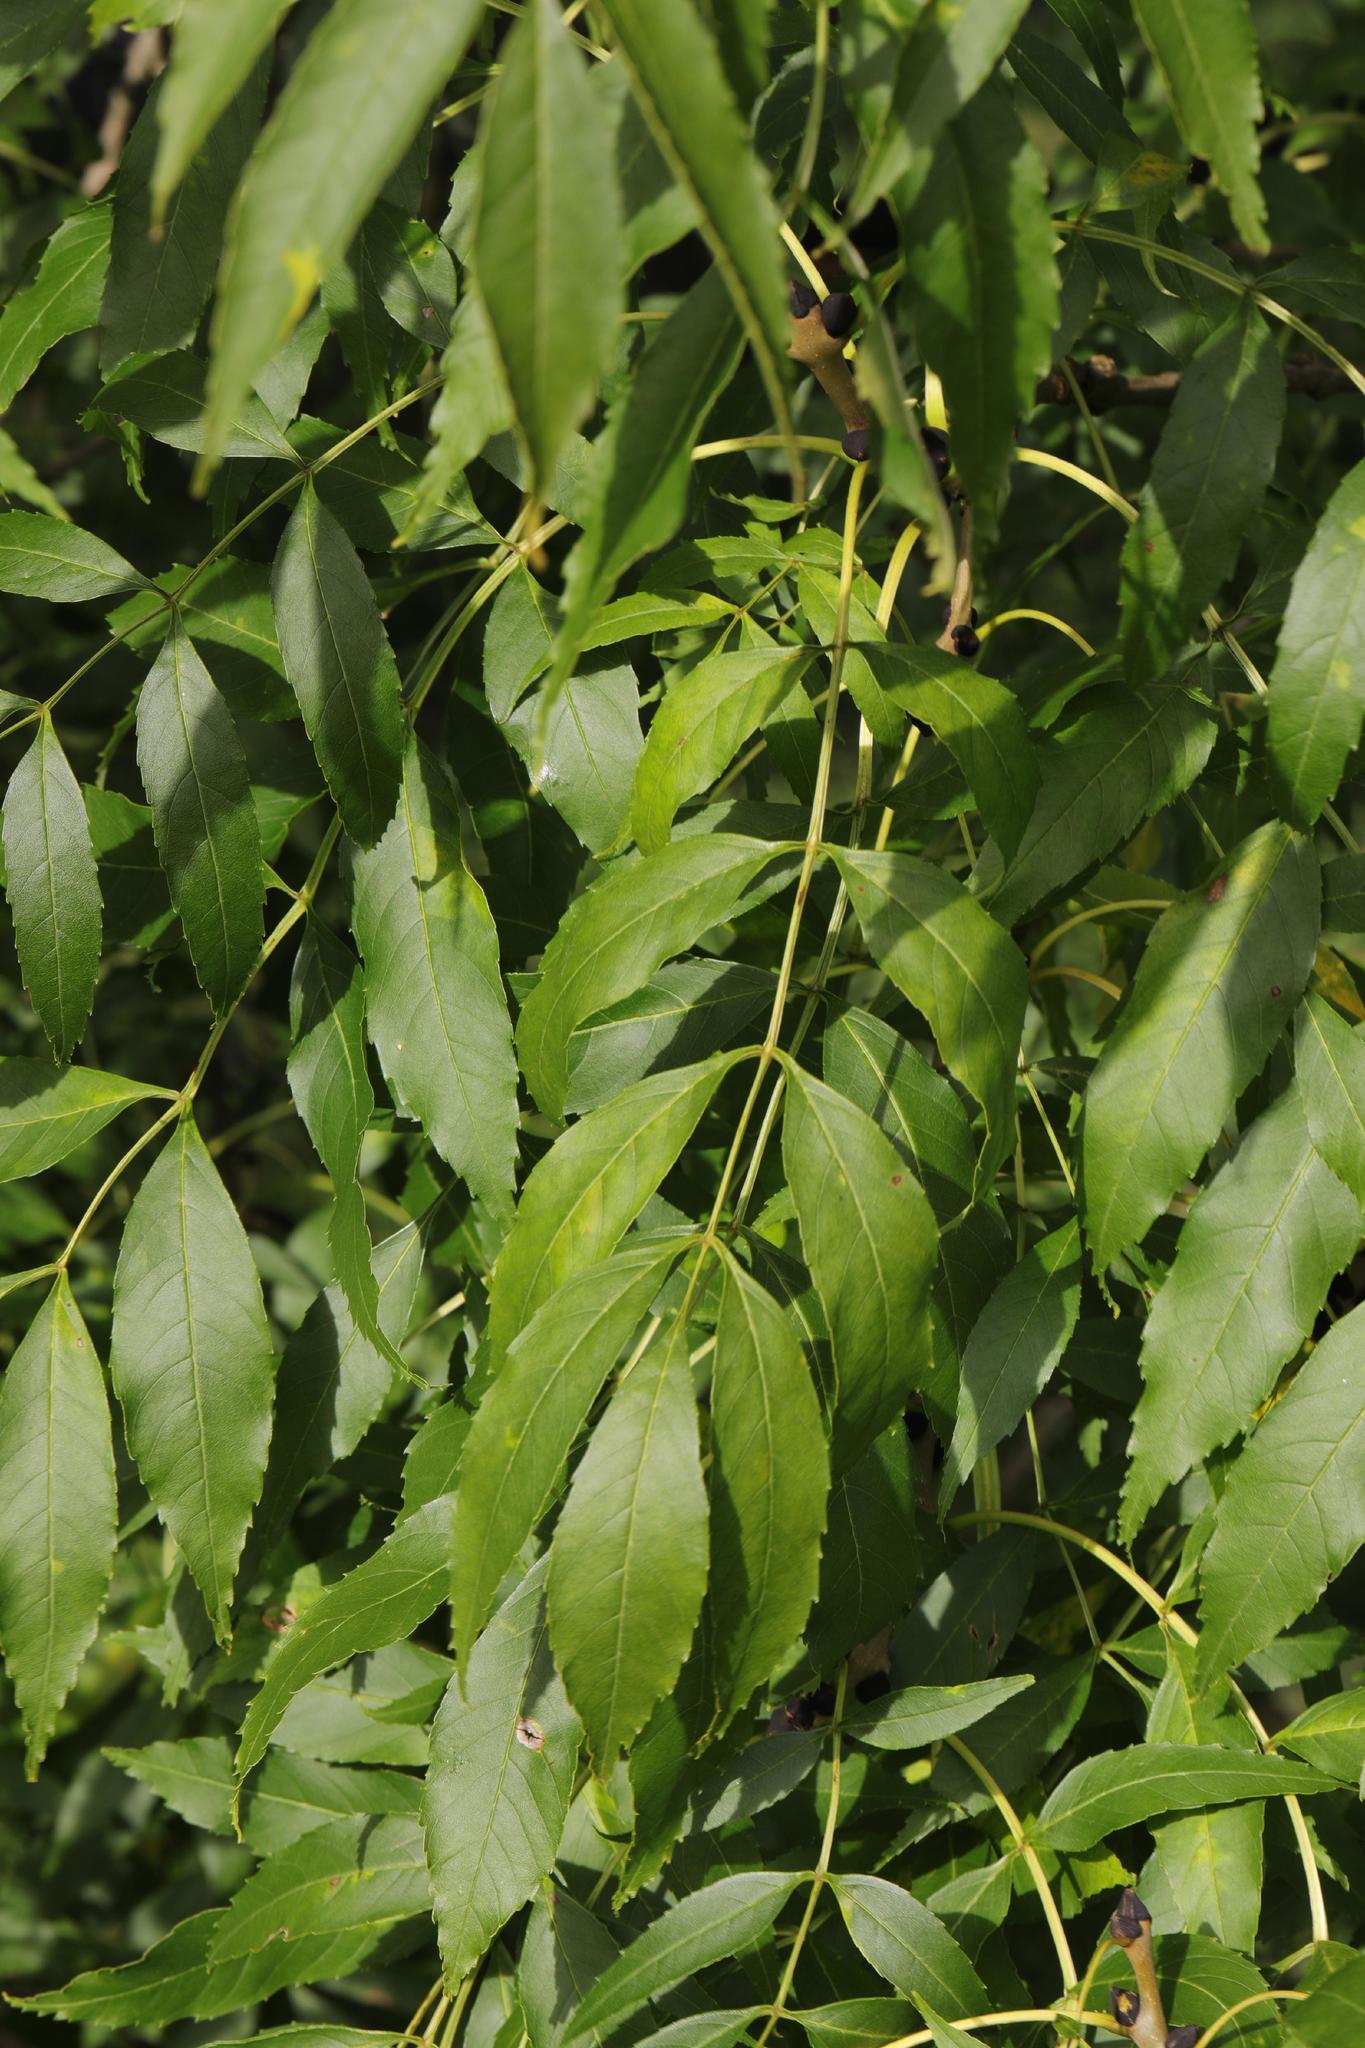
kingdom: Plantae
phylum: Tracheophyta
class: Magnoliopsida
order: Lamiales
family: Oleaceae
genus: Fraxinus
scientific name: Fraxinus excelsior
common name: European ash
